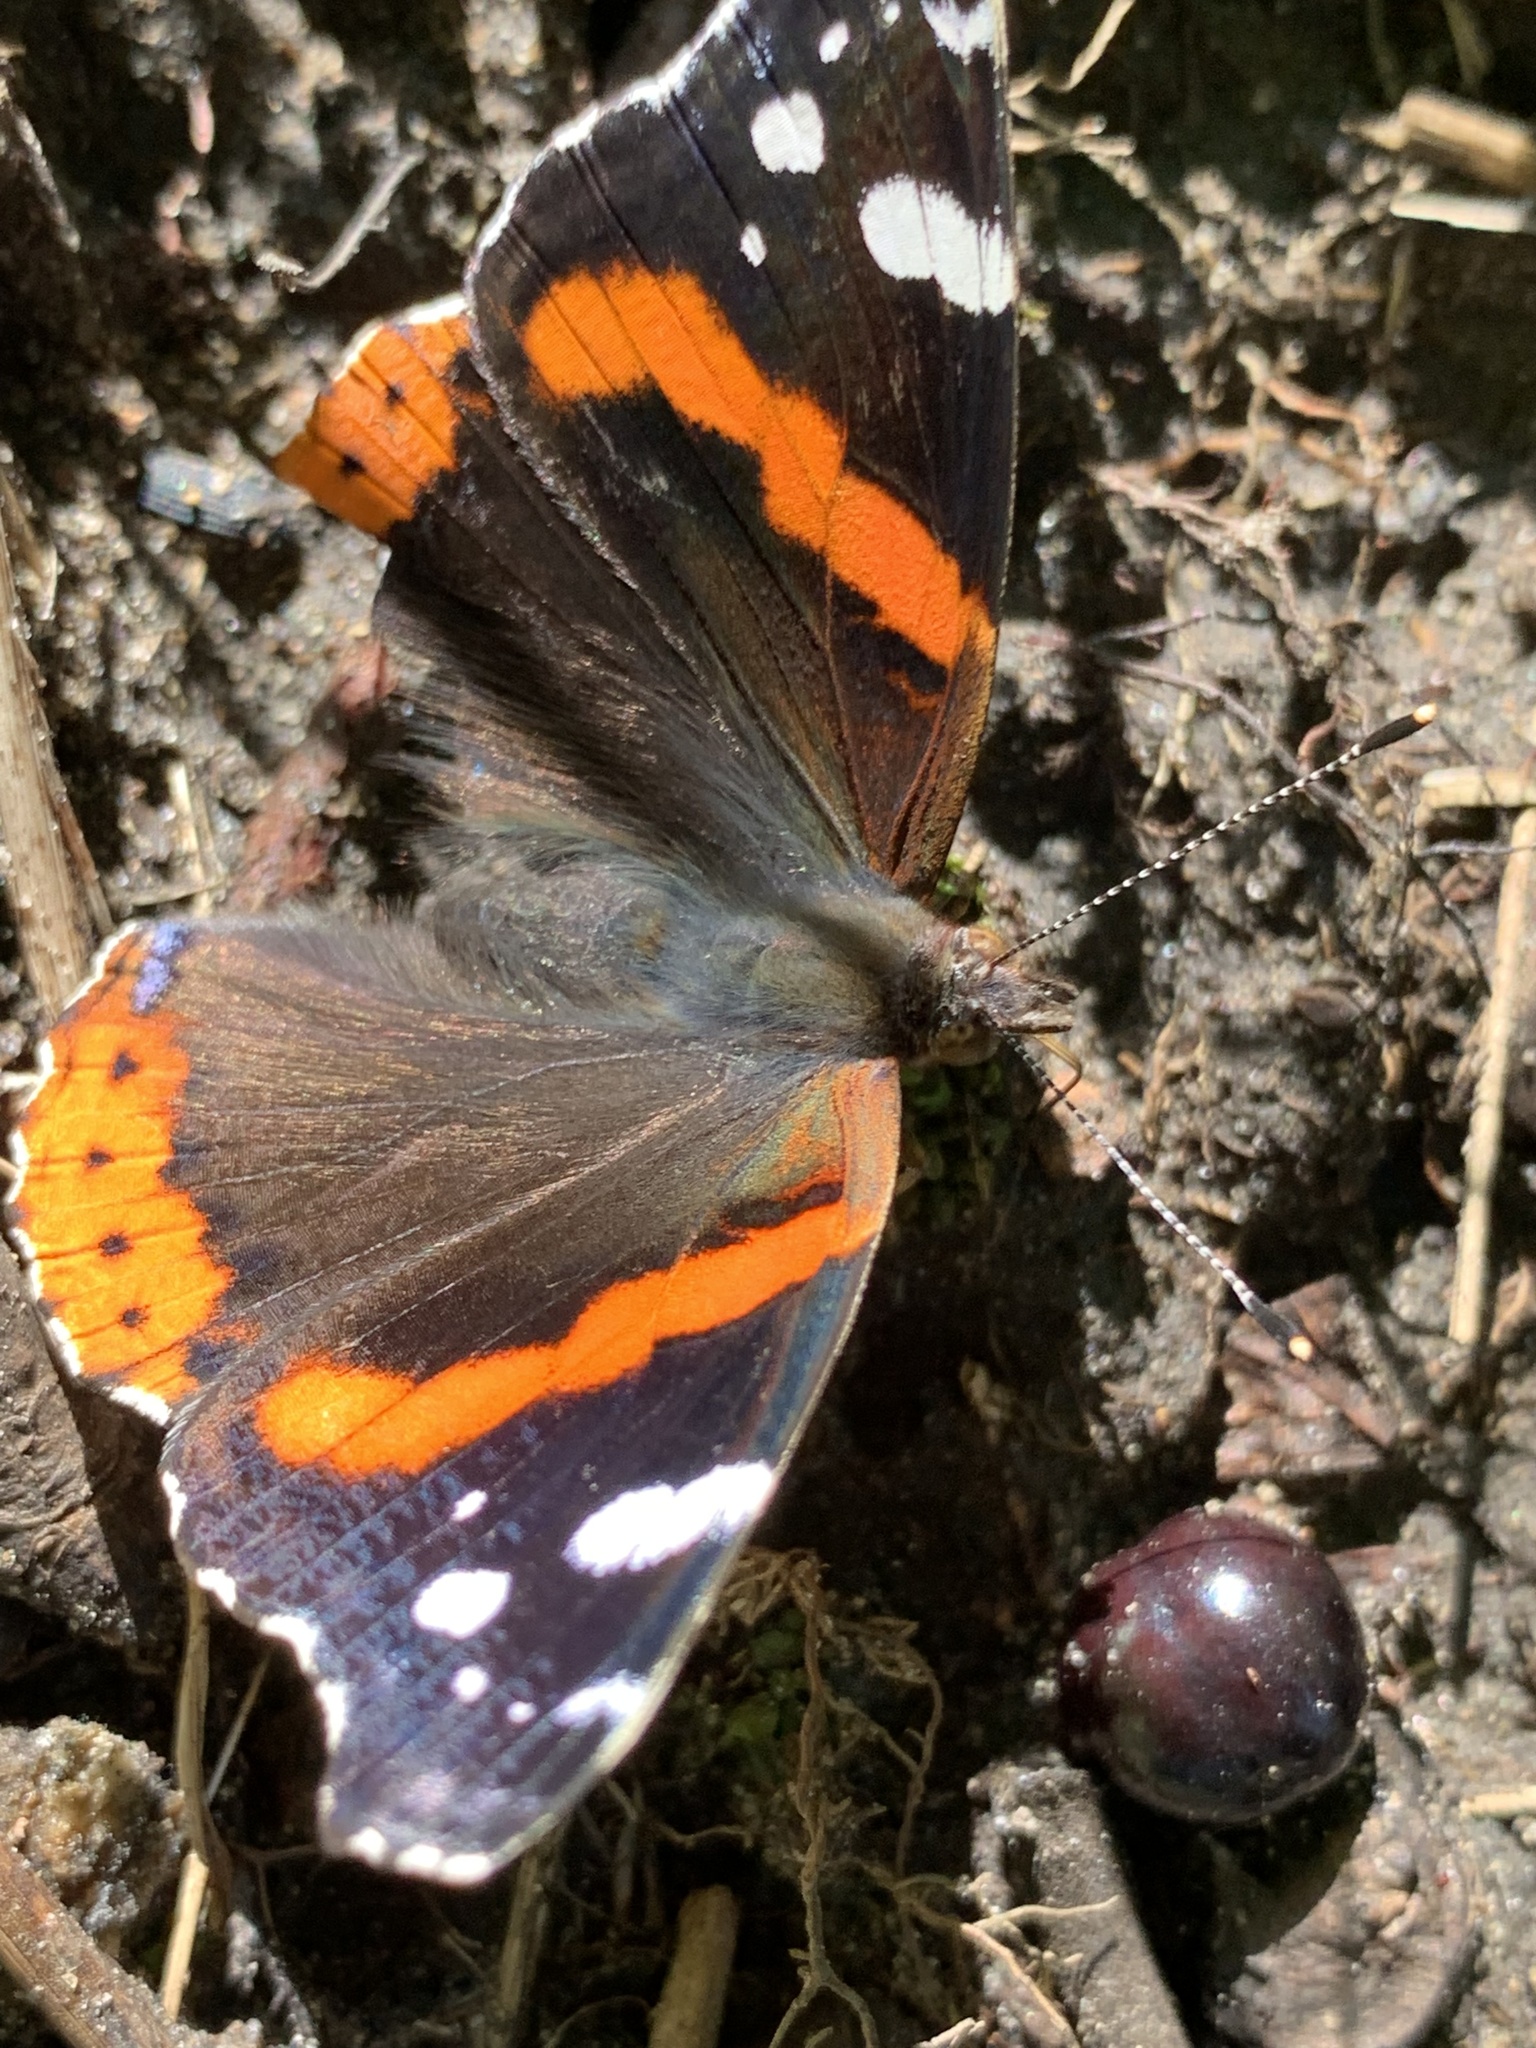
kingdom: Animalia
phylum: Arthropoda
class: Insecta
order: Lepidoptera
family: Nymphalidae
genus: Vanessa
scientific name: Vanessa atalanta
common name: Red admiral
